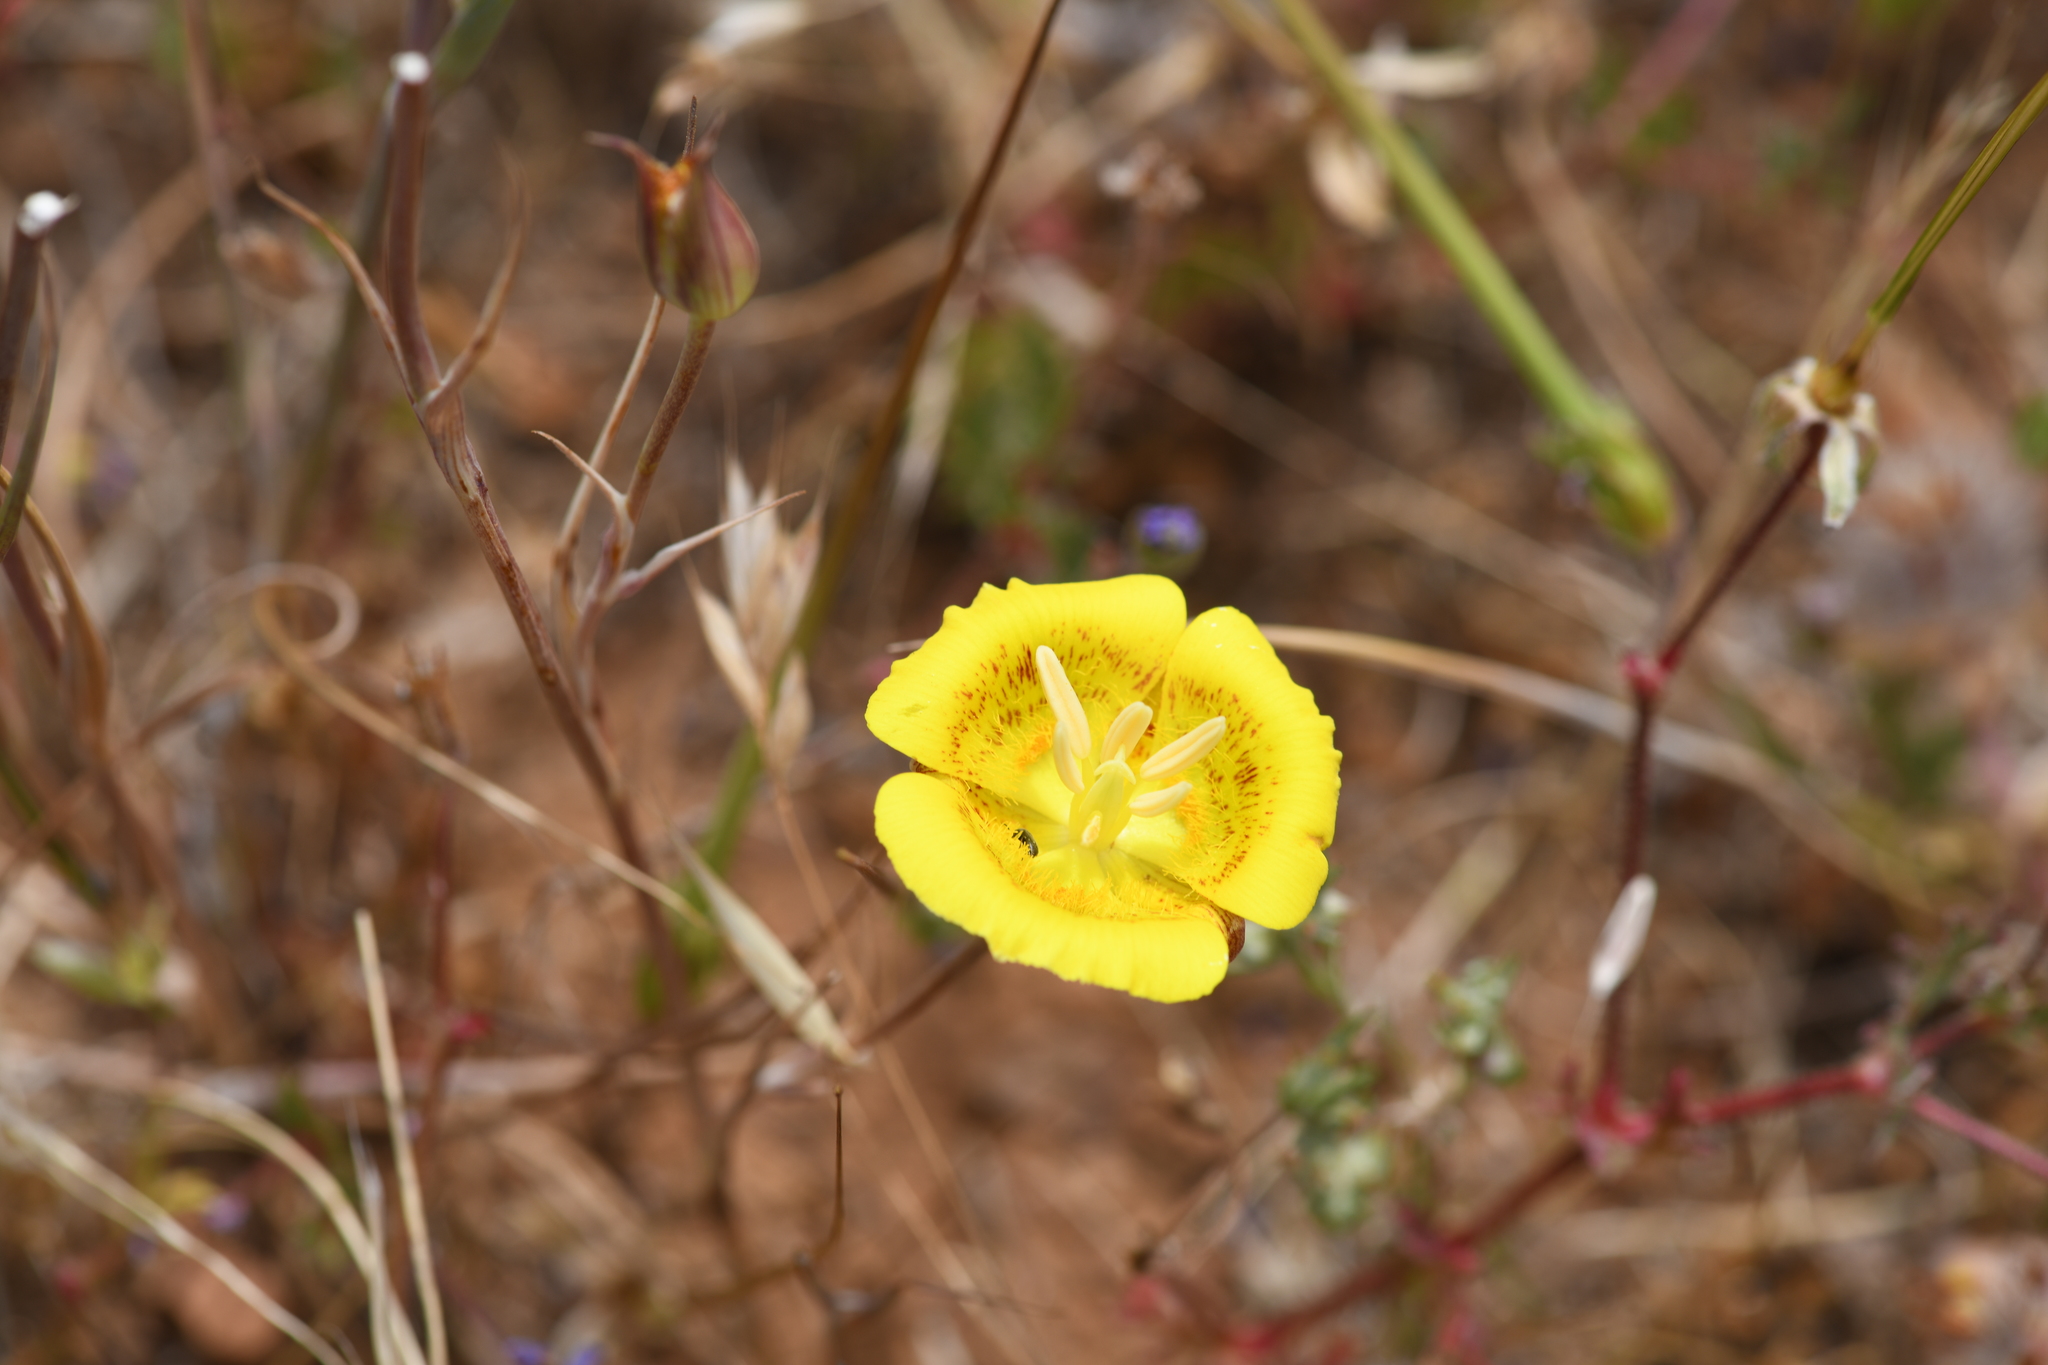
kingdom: Plantae
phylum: Tracheophyta
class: Liliopsida
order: Liliales
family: Liliaceae
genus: Calochortus
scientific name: Calochortus luteus
